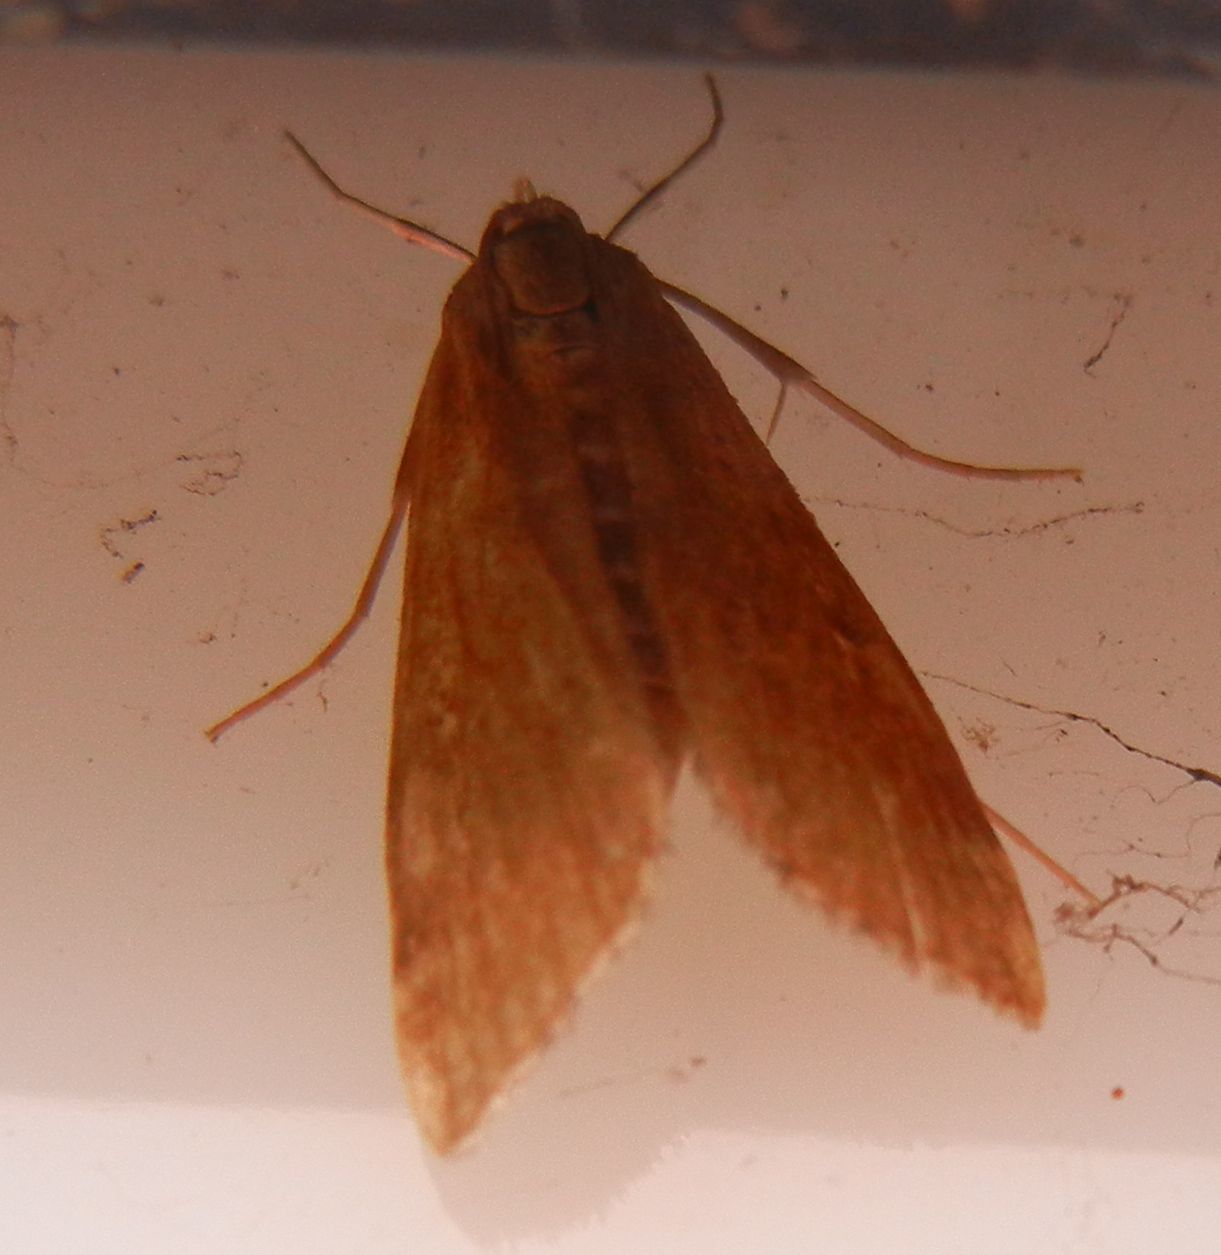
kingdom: Animalia
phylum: Arthropoda
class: Insecta
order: Lepidoptera
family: Crambidae
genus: Parapoynx
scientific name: Parapoynx stratiotata
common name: Ringed china-mark
